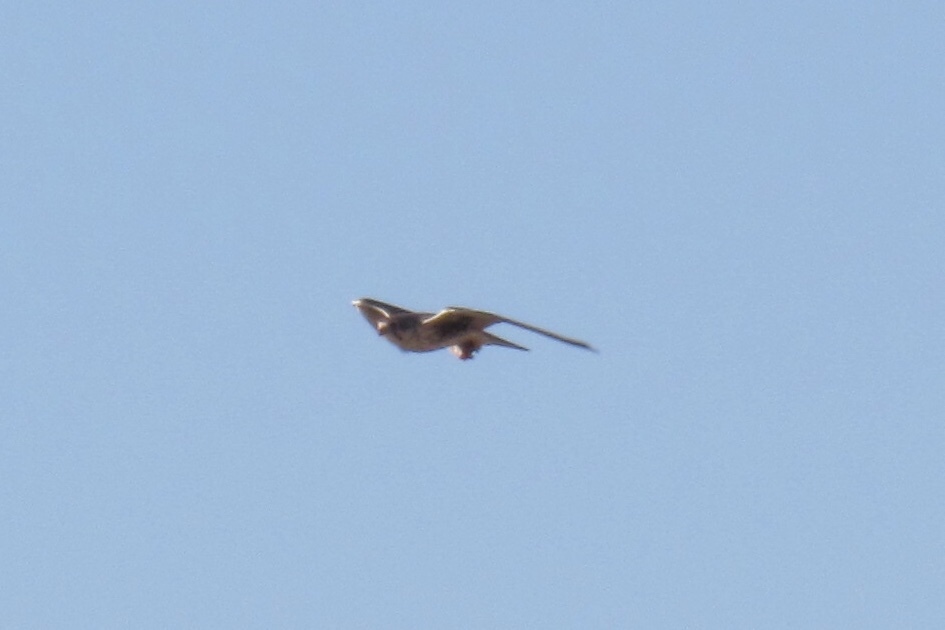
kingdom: Animalia
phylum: Chordata
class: Aves
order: Falconiformes
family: Falconidae
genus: Falco
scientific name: Falco mexicanus
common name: Prairie falcon
